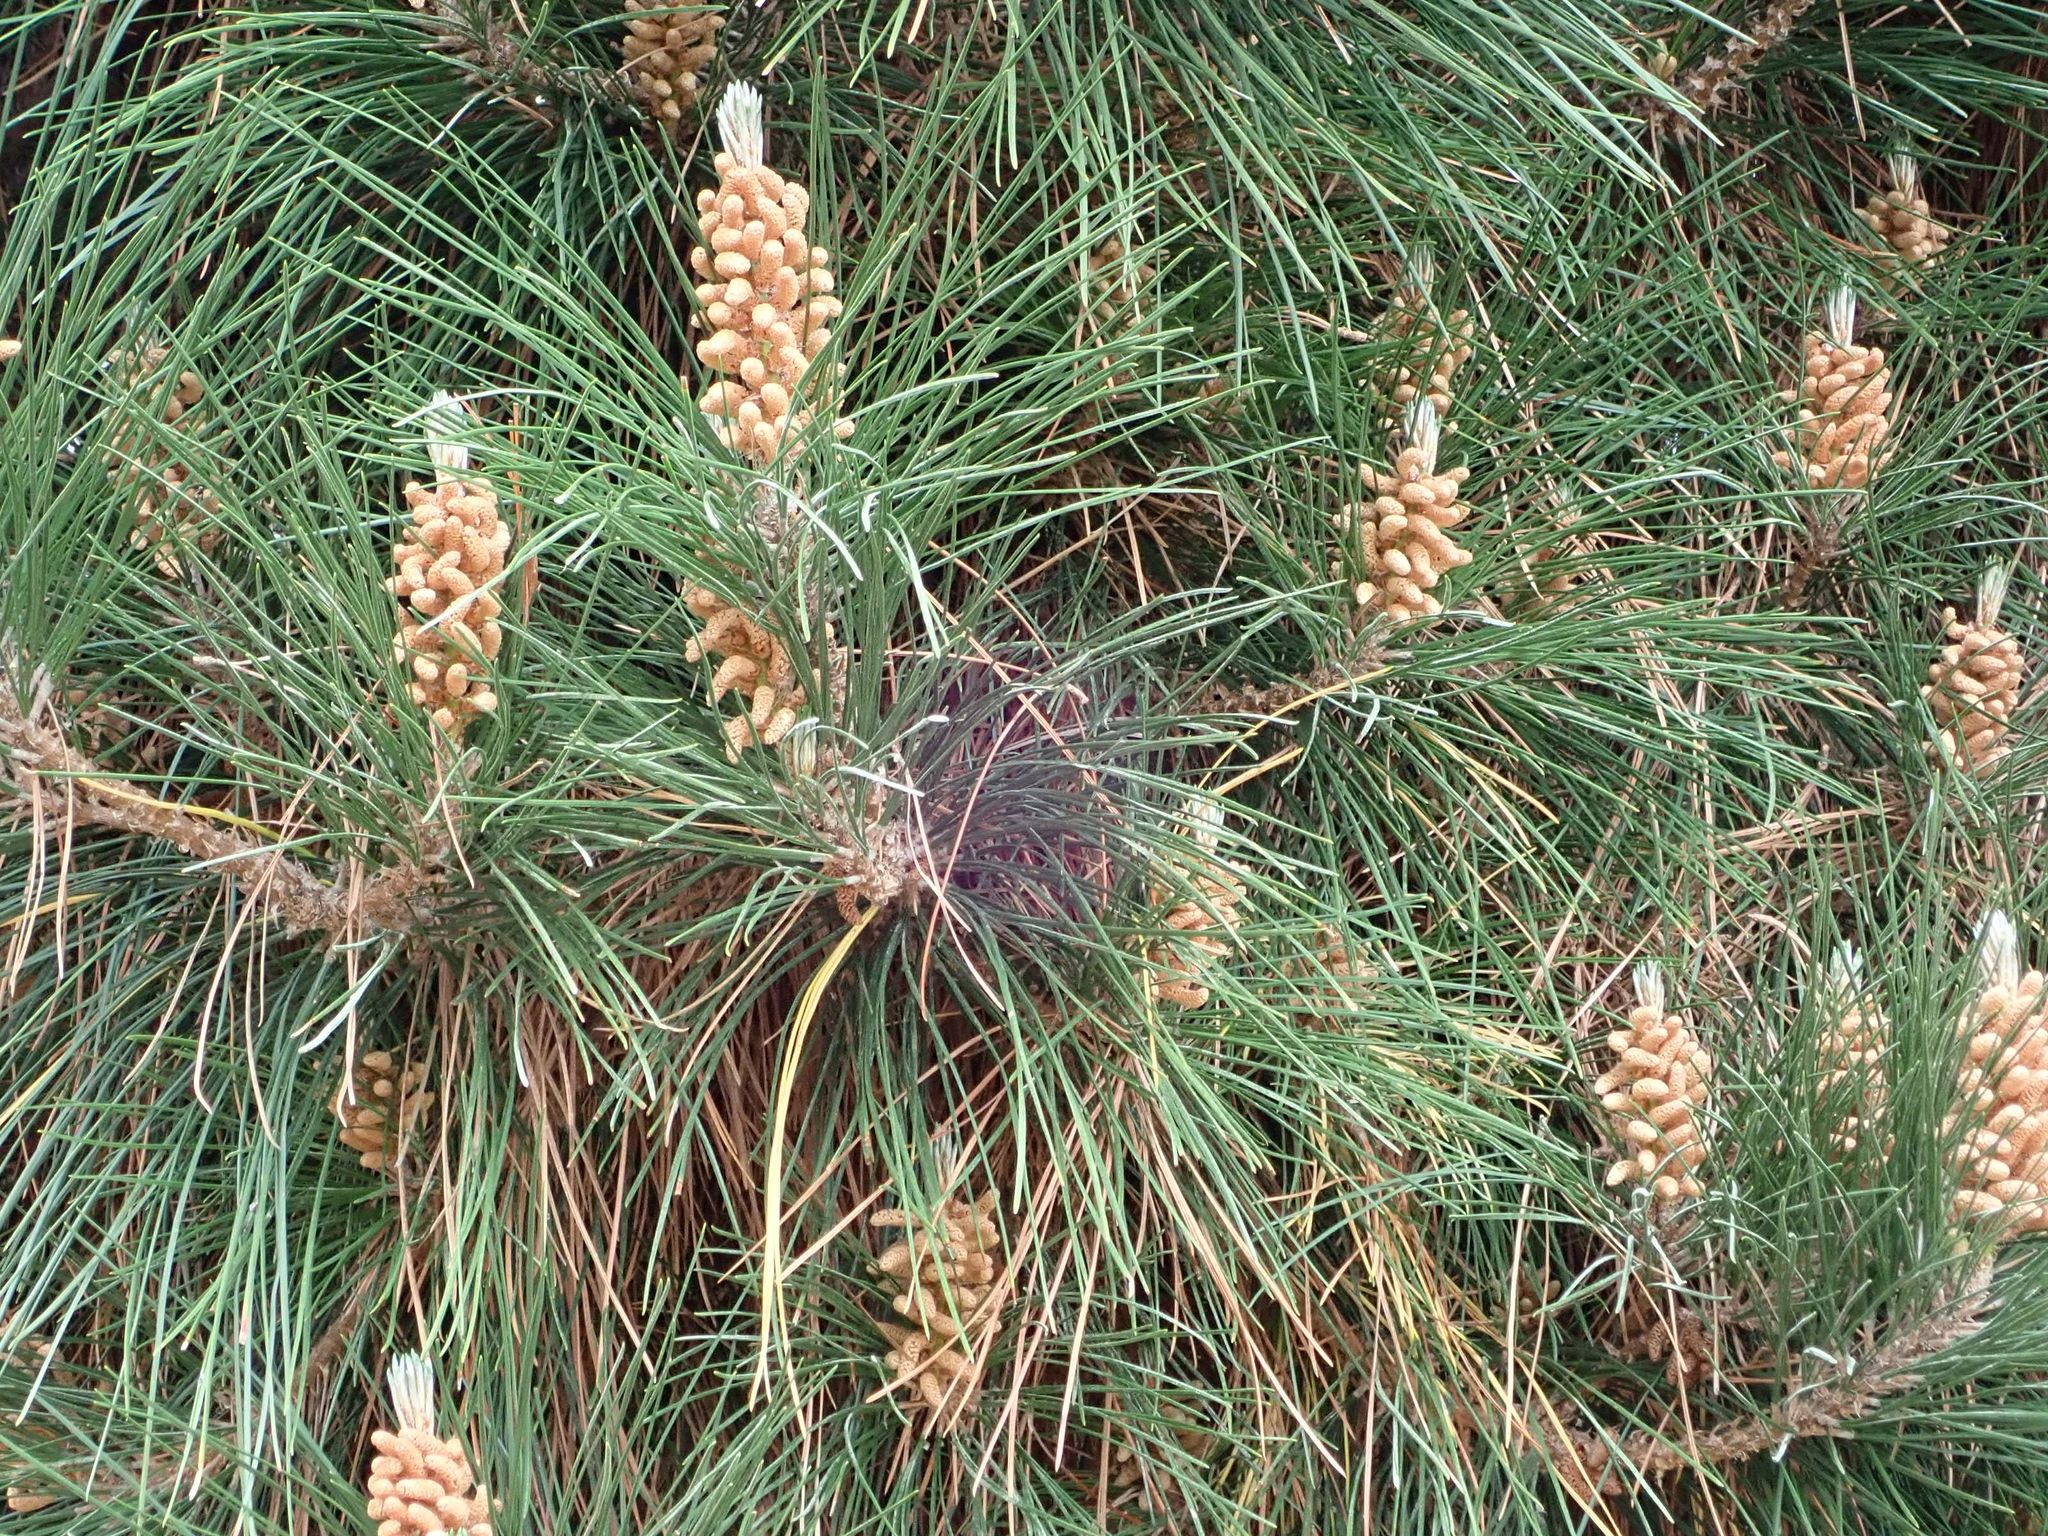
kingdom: Plantae
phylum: Tracheophyta
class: Pinopsida
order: Pinales
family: Pinaceae
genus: Pinus
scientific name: Pinus radiata
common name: Monterey pine
